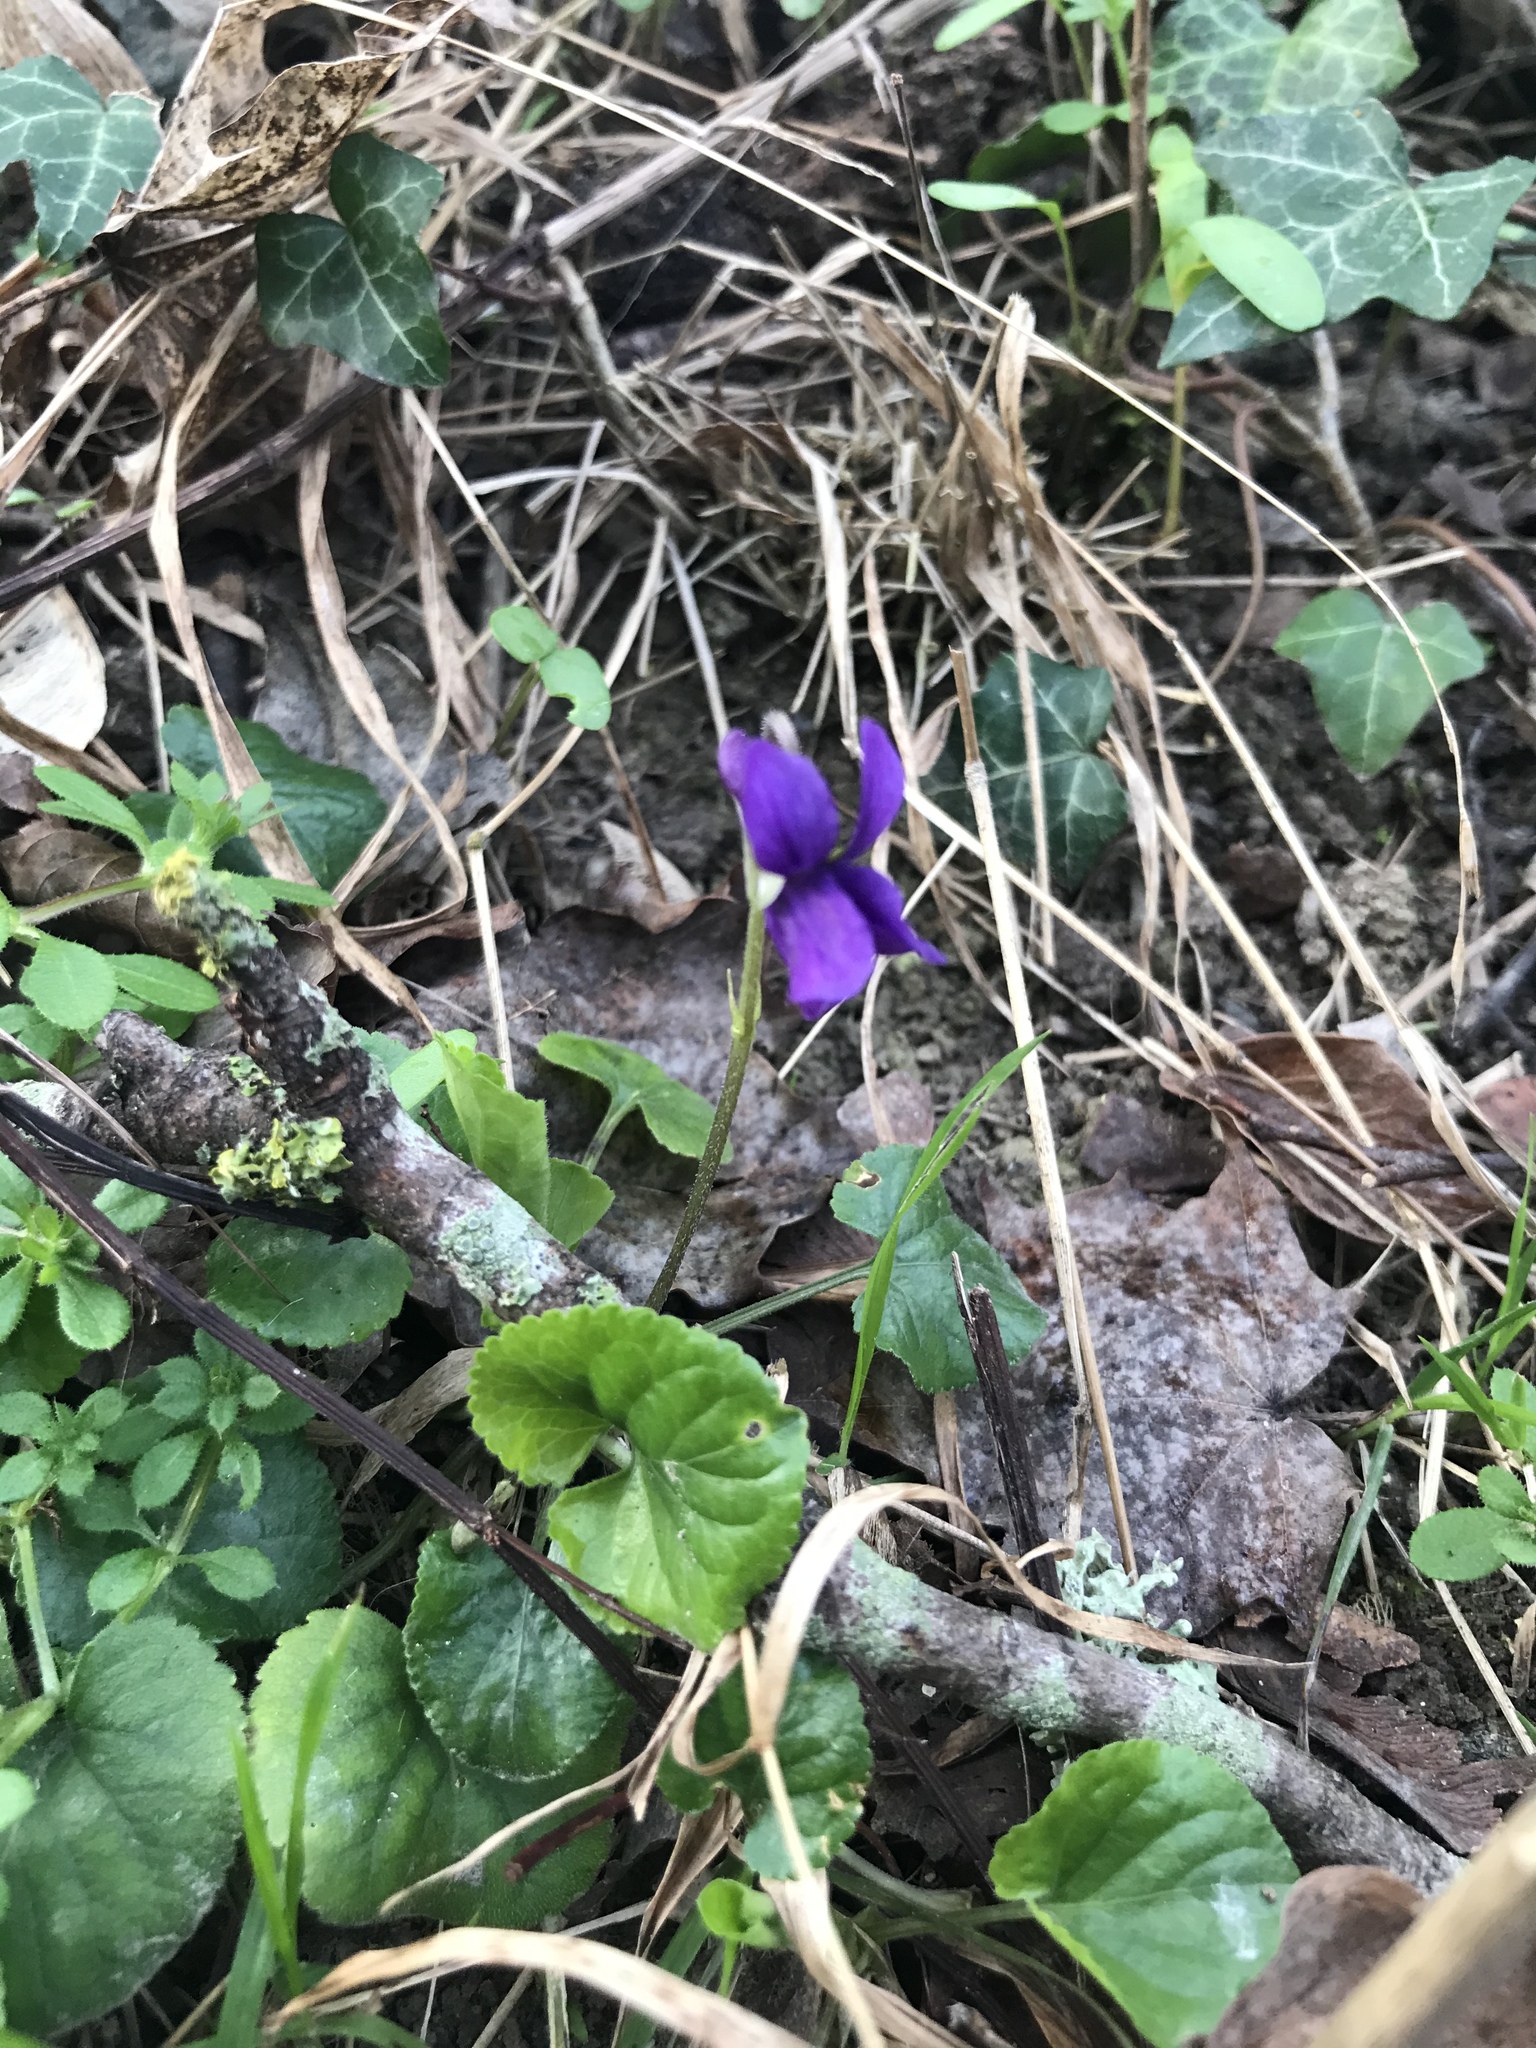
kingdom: Plantae
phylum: Tracheophyta
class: Magnoliopsida
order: Malpighiales
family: Violaceae
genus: Viola
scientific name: Viola odorata
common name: Sweet violet
